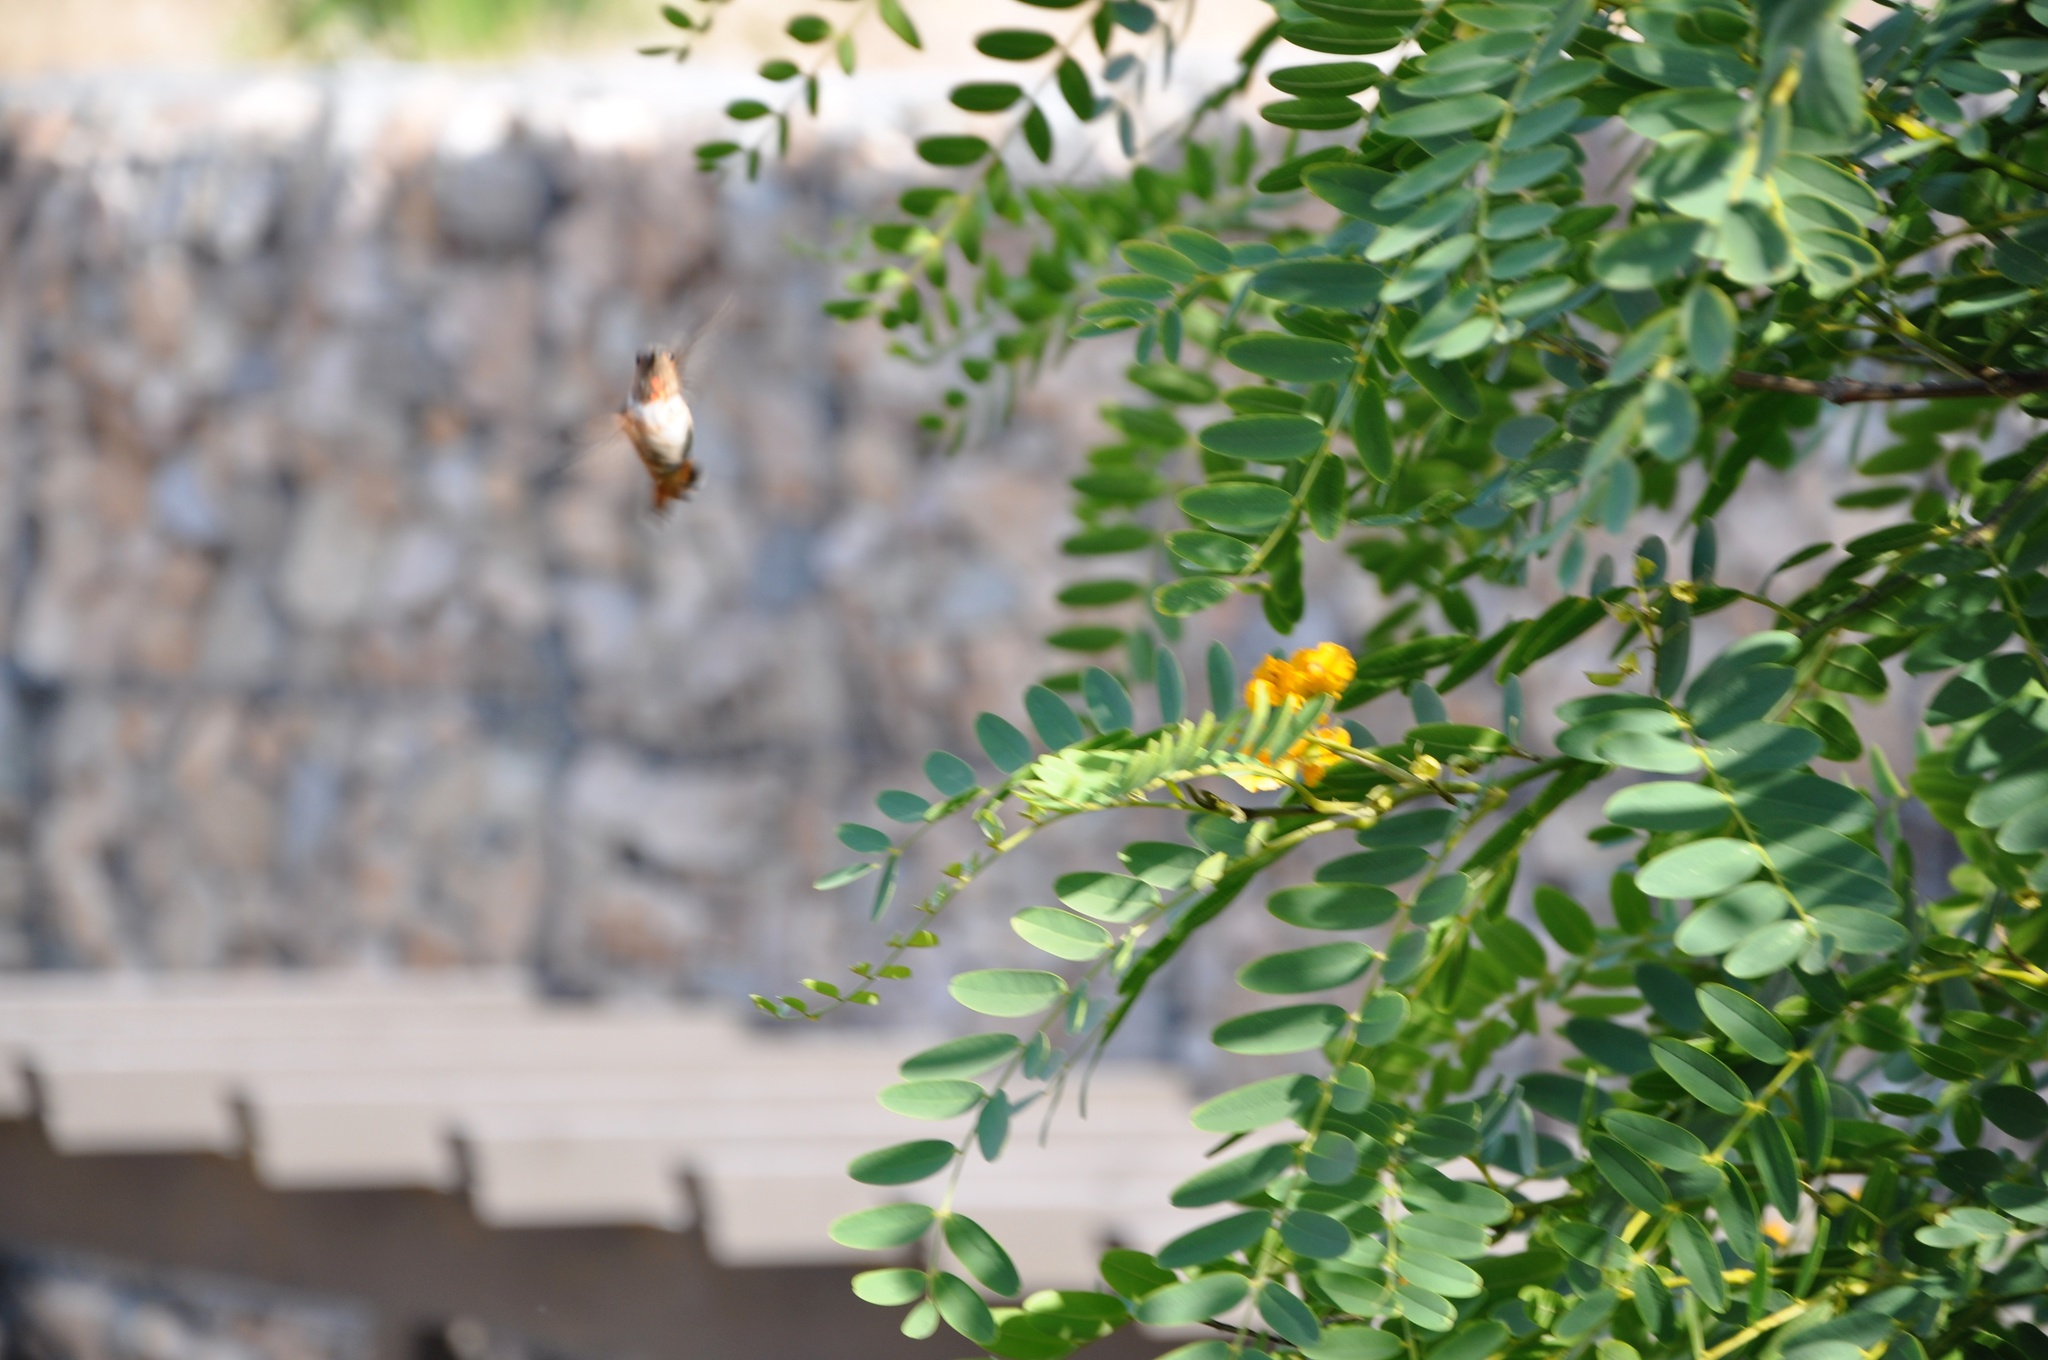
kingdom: Animalia
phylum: Chordata
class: Aves
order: Apodiformes
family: Trochilidae
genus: Selasphorus
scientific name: Selasphorus
